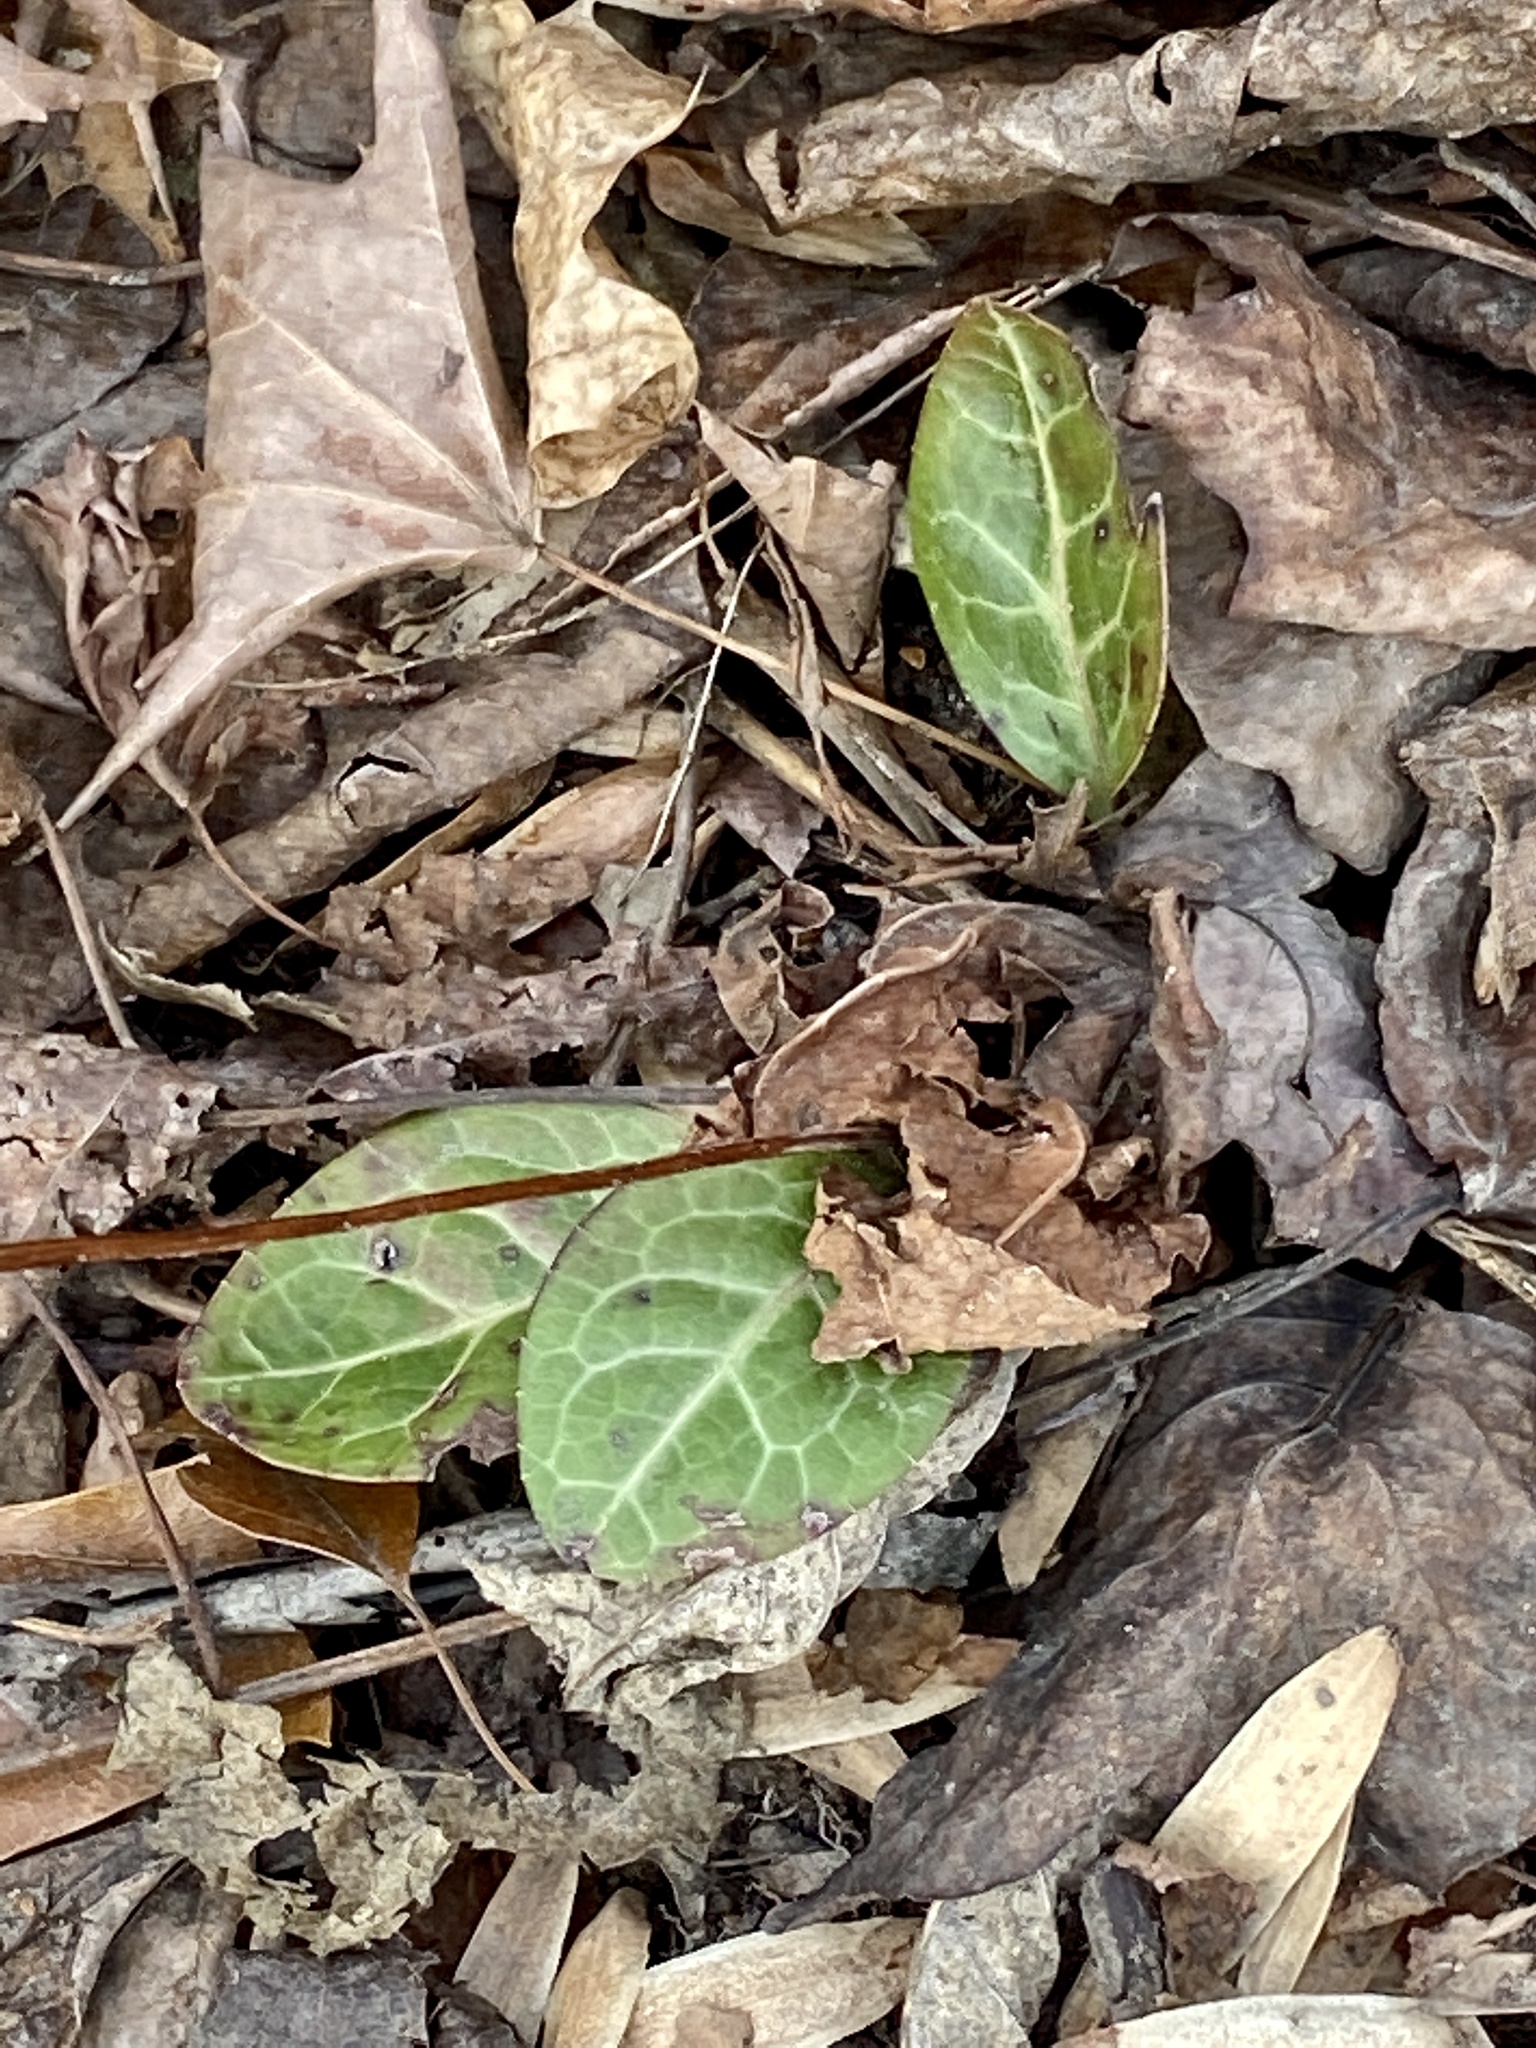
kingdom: Plantae
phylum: Tracheophyta
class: Magnoliopsida
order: Ericales
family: Ericaceae
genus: Pyrola
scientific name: Pyrola americana
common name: American wintergreen
